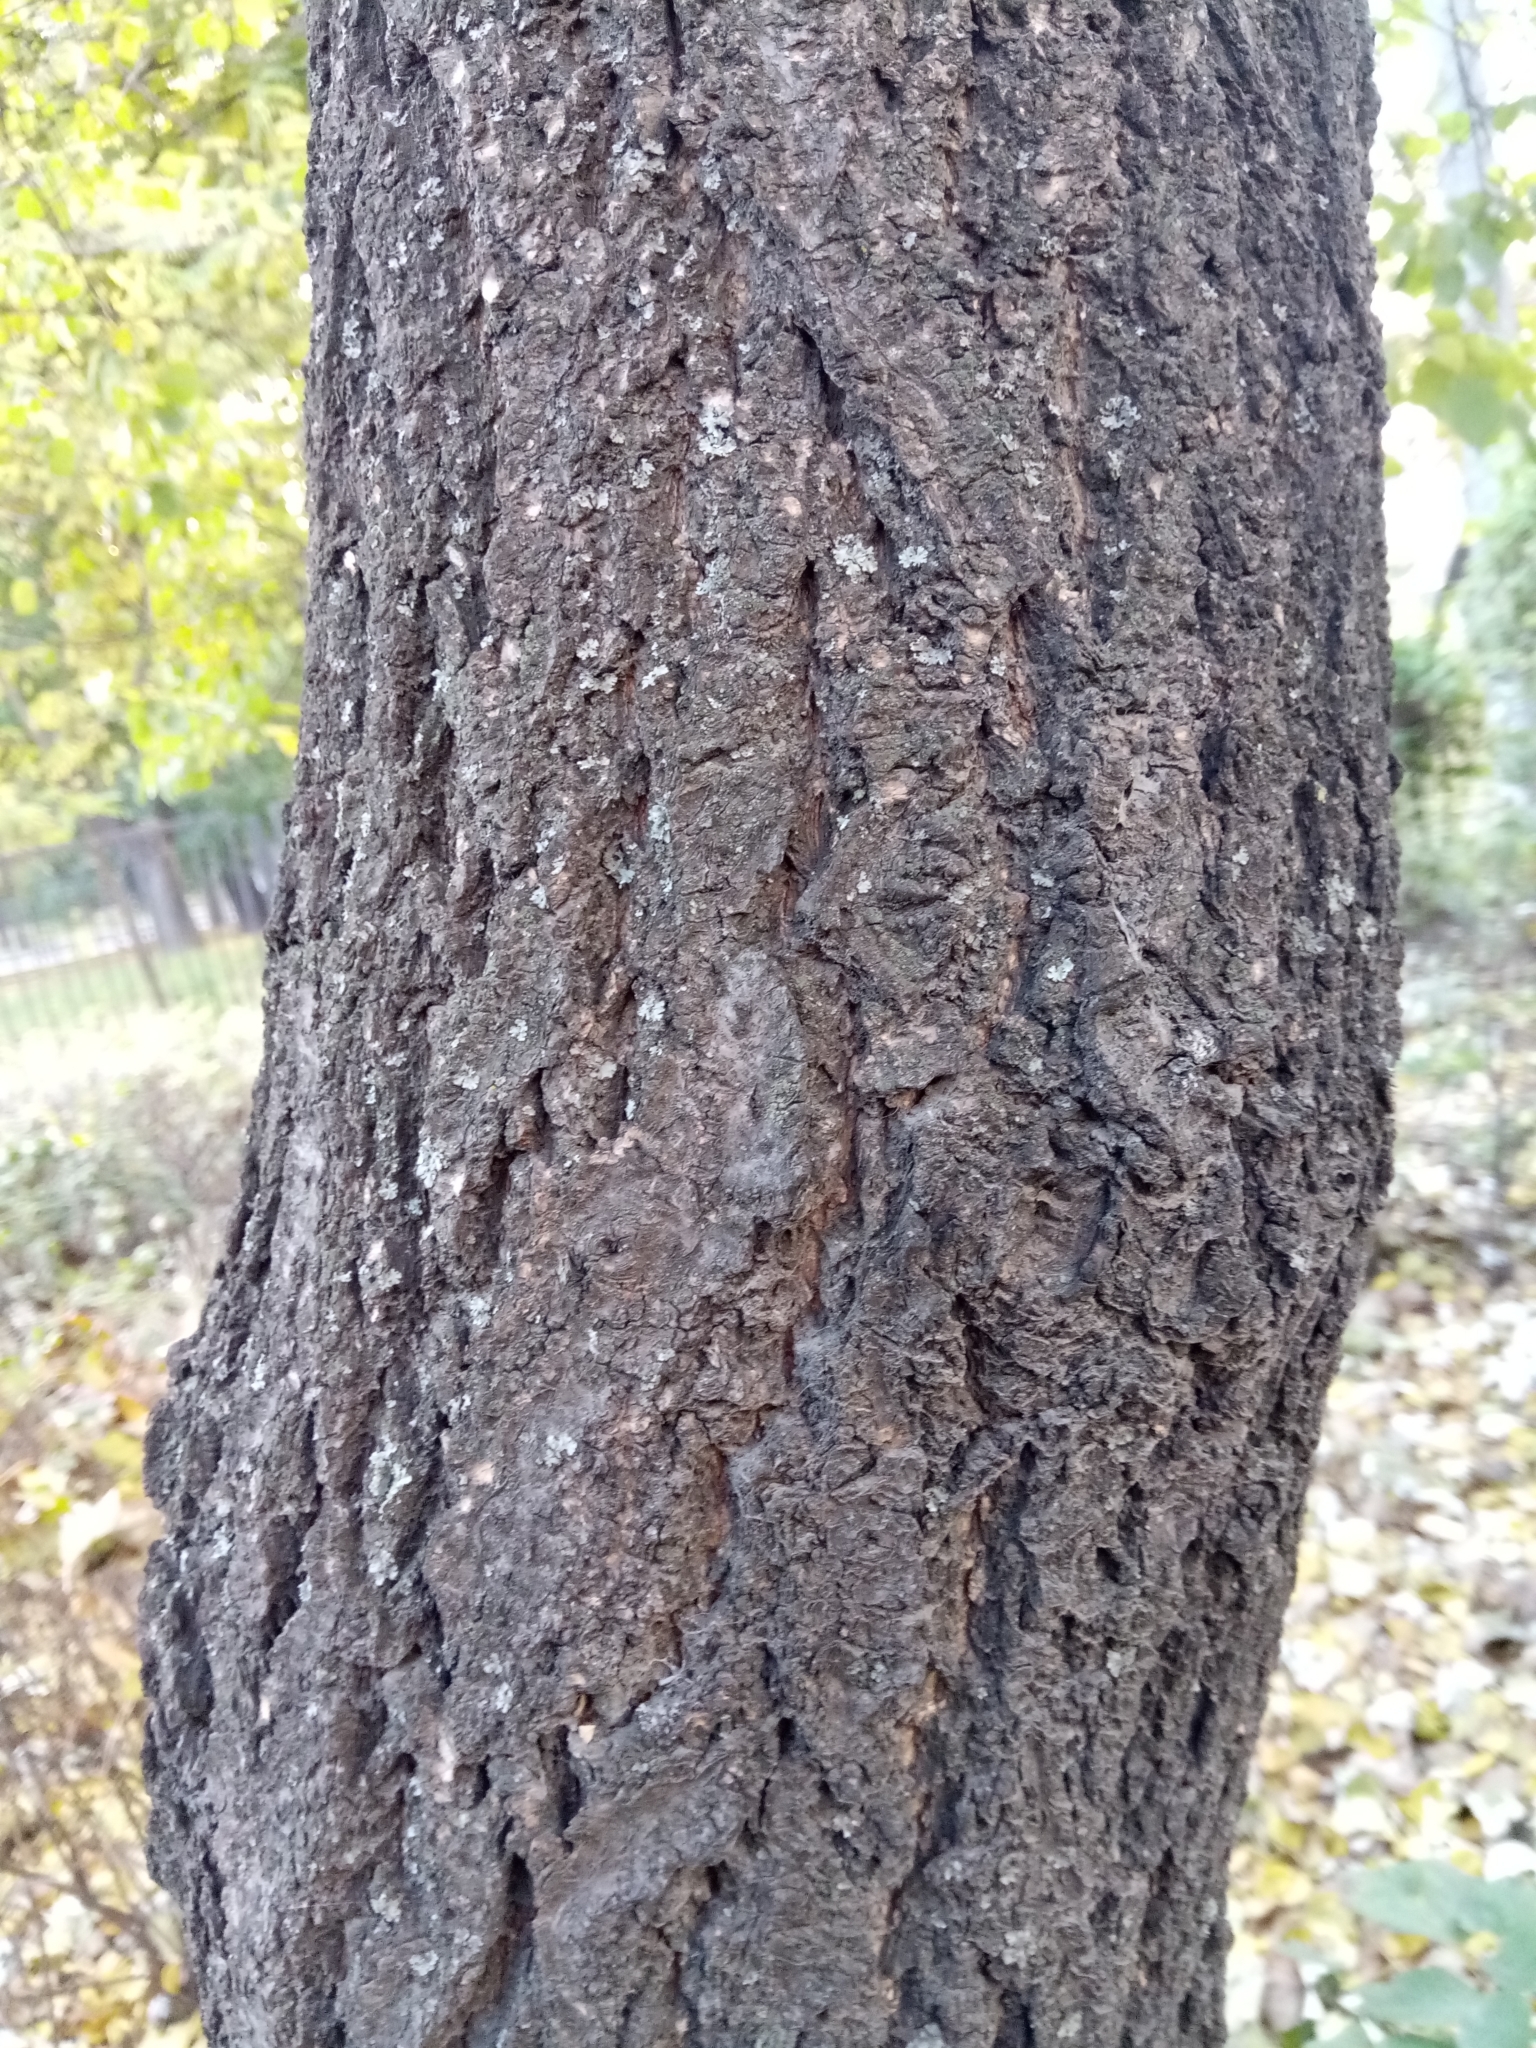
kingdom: Plantae
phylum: Tracheophyta
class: Magnoliopsida
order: Malvales
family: Malvaceae
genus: Tilia
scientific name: Tilia cordata
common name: Small-leaved lime
